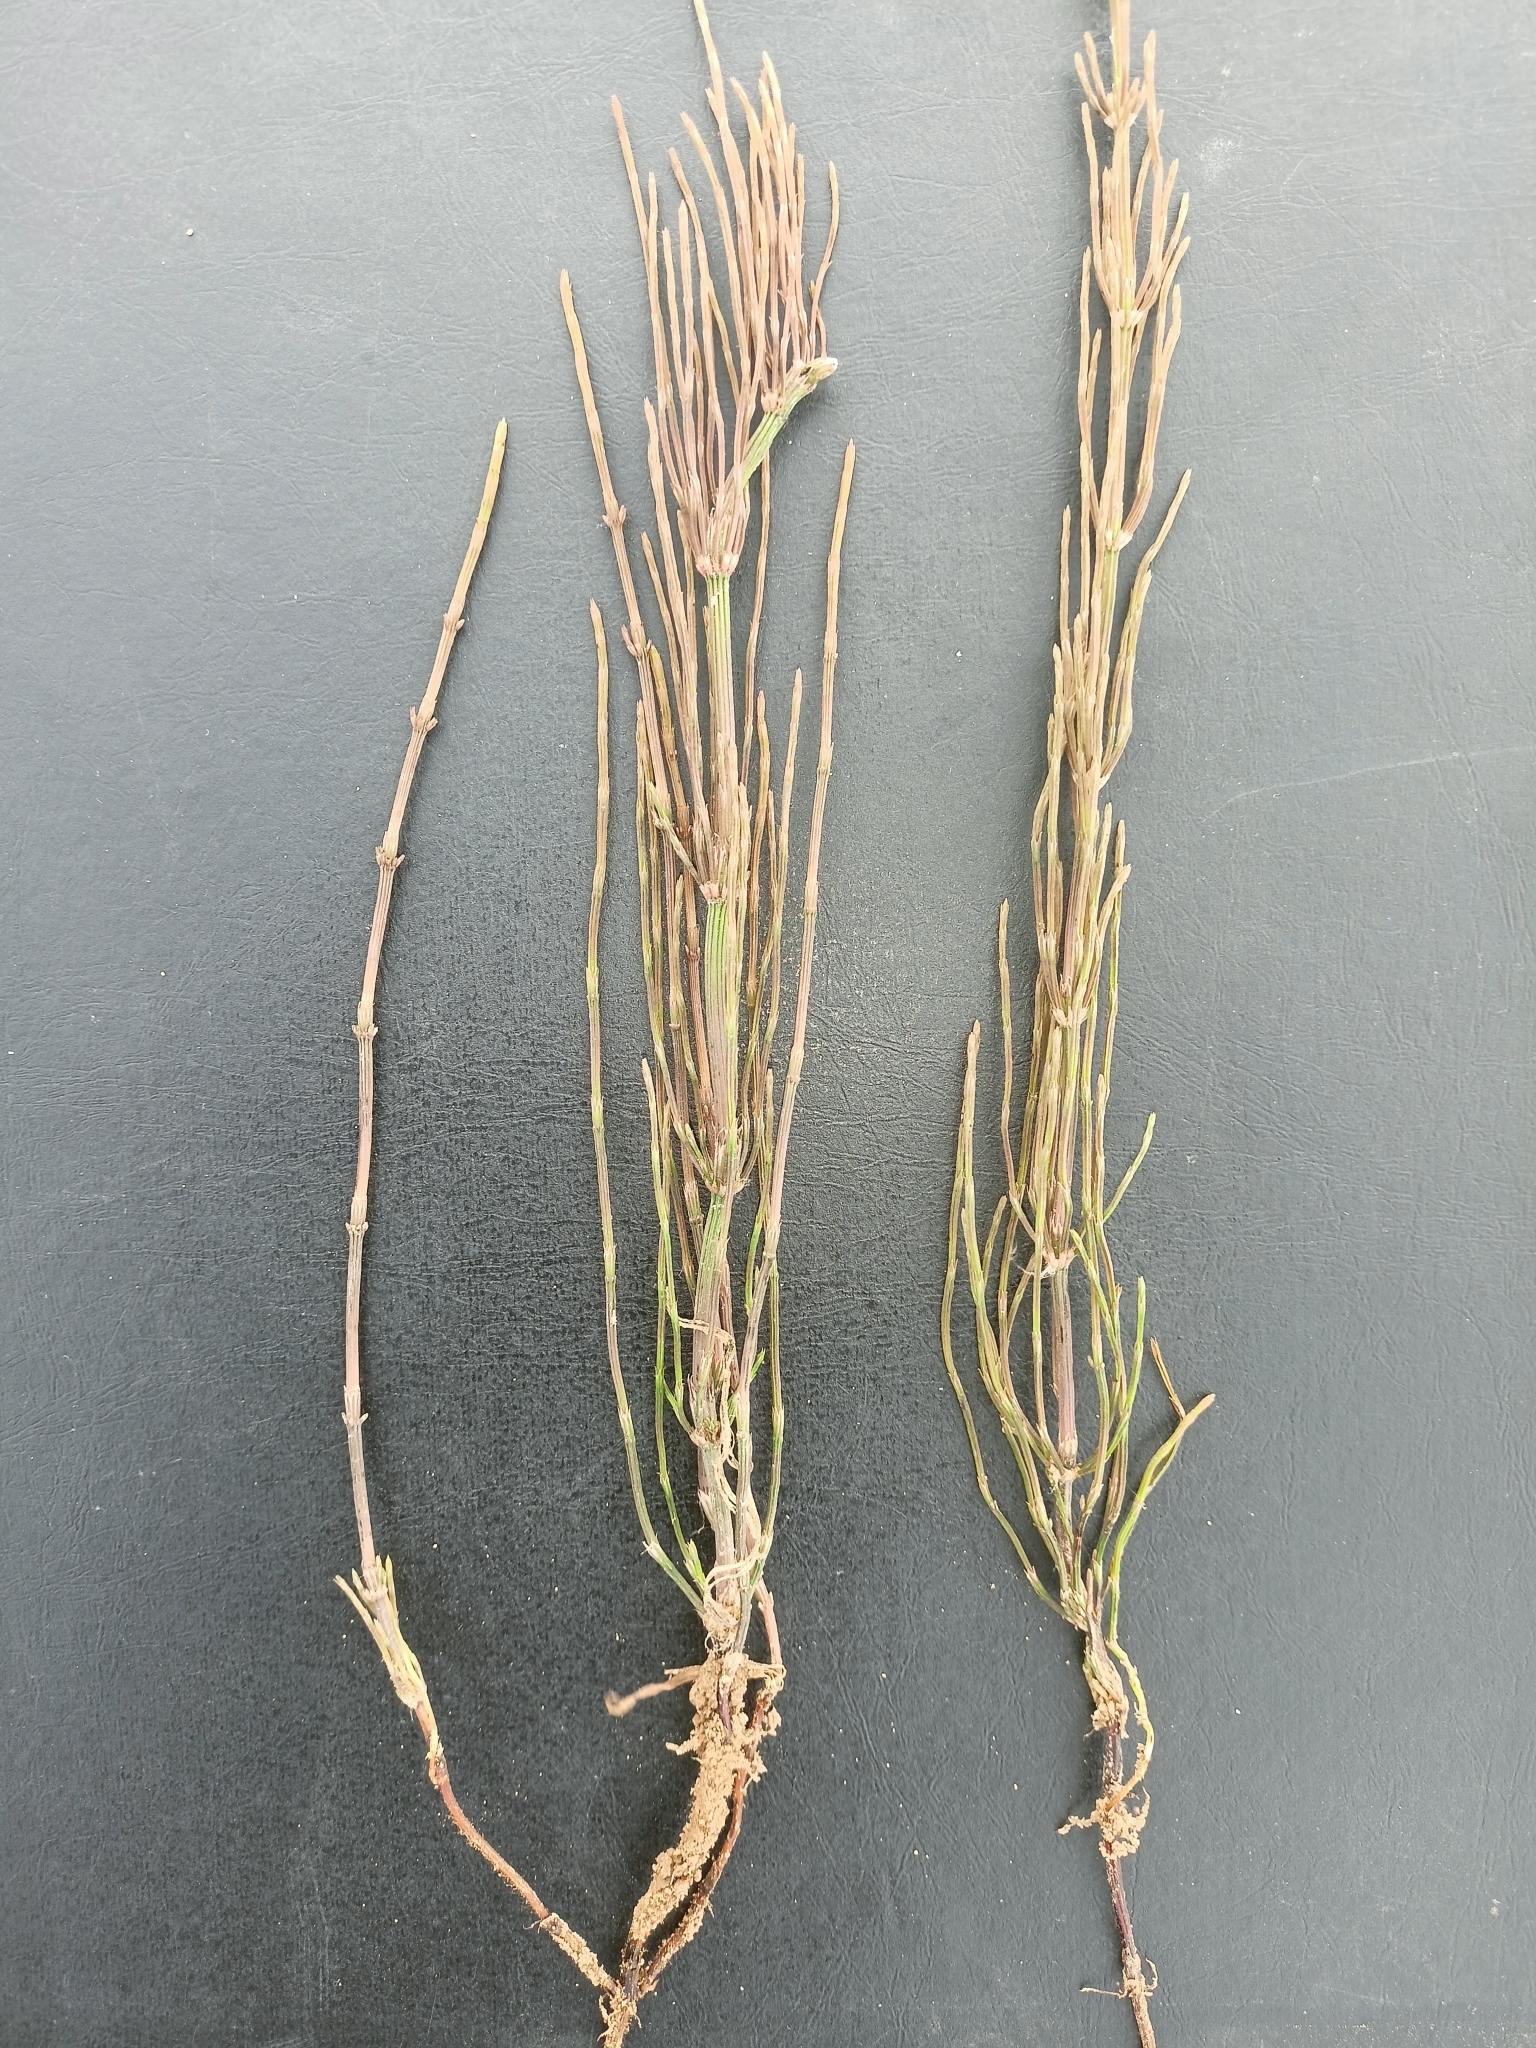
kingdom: Plantae
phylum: Tracheophyta
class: Polypodiopsida
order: Equisetales
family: Equisetaceae
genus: Equisetum
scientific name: Equisetum arvense
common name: Field horsetail
